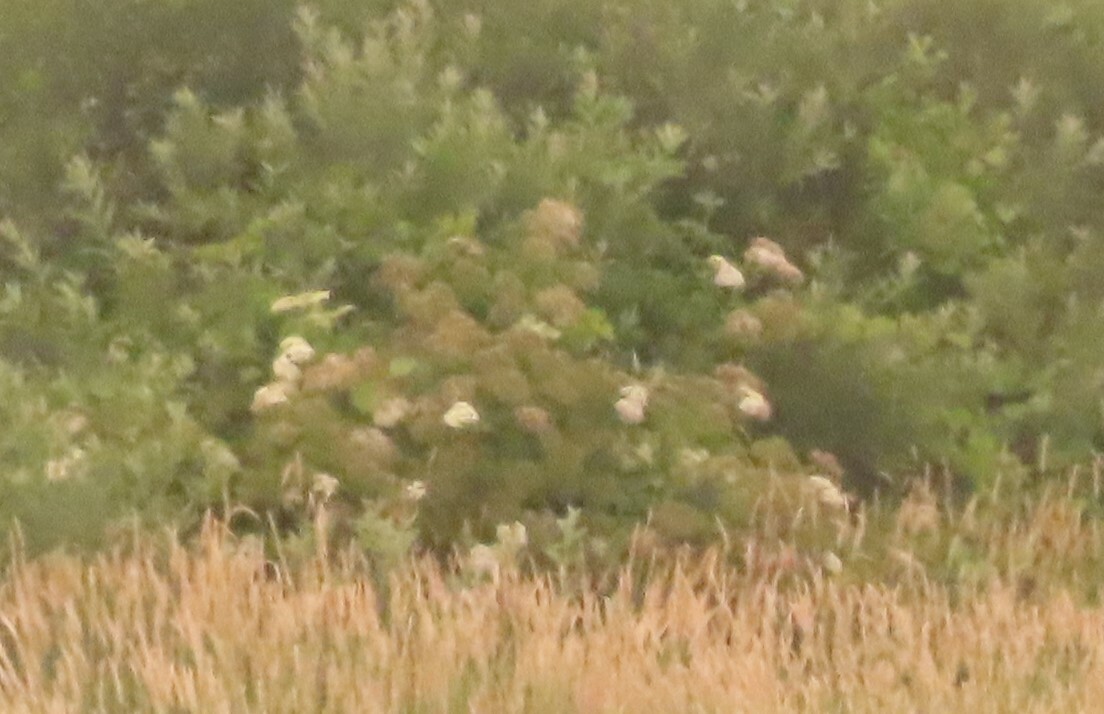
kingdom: Plantae
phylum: Tracheophyta
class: Magnoliopsida
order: Dipsacales
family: Viburnaceae
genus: Sambucus
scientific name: Sambucus canadensis
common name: American elder
